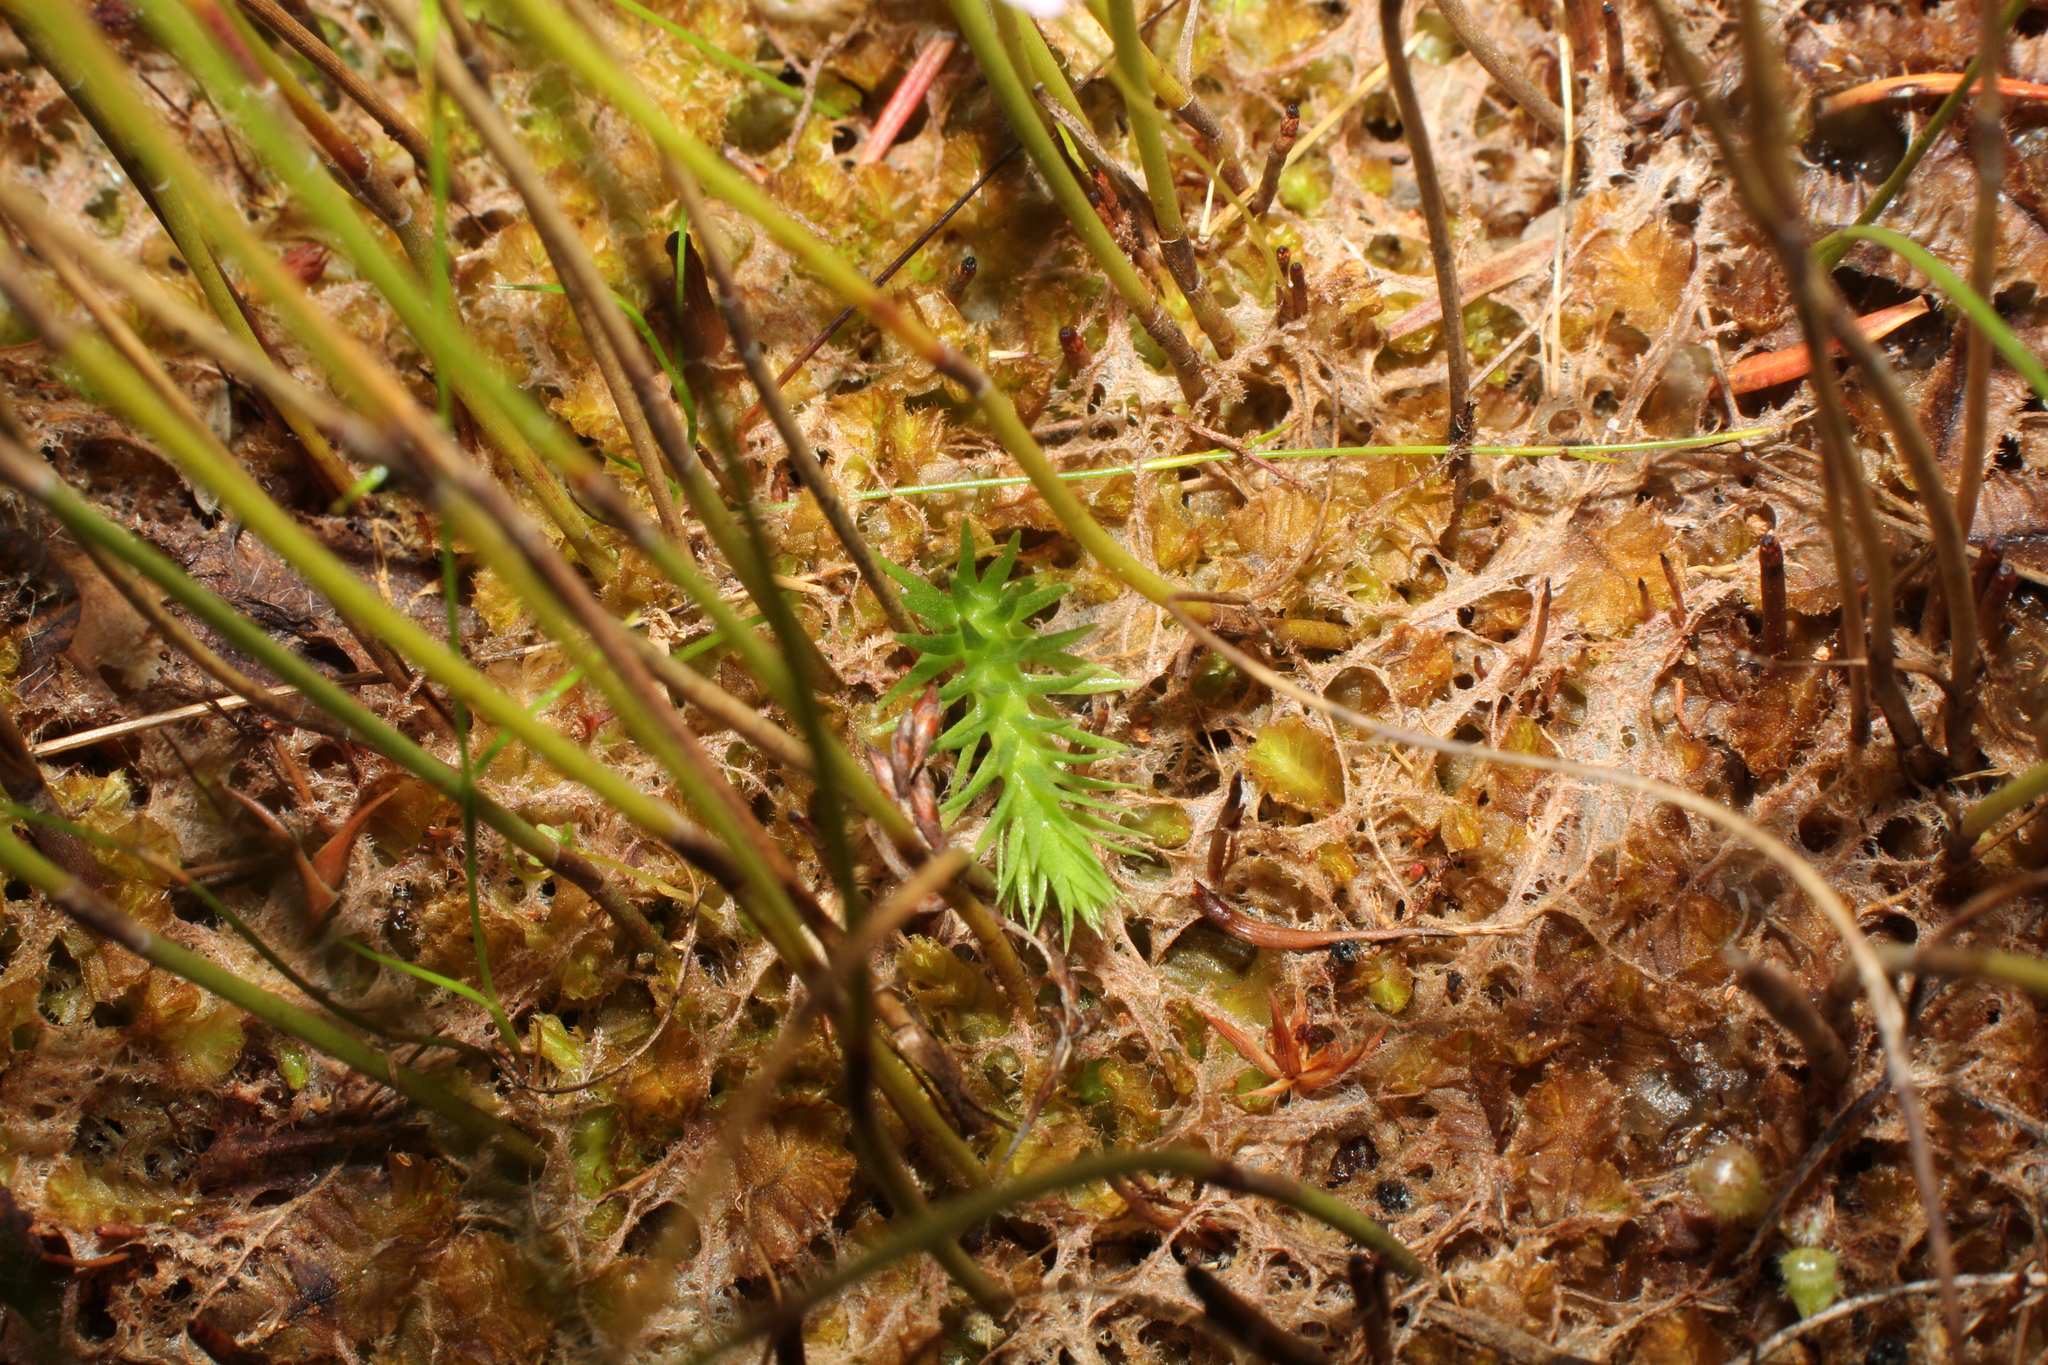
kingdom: Plantae
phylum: Tracheophyta
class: Lycopodiopsida
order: Lycopodiales
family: Lycopodiaceae
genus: Brownseya
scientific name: Brownseya serpentina
